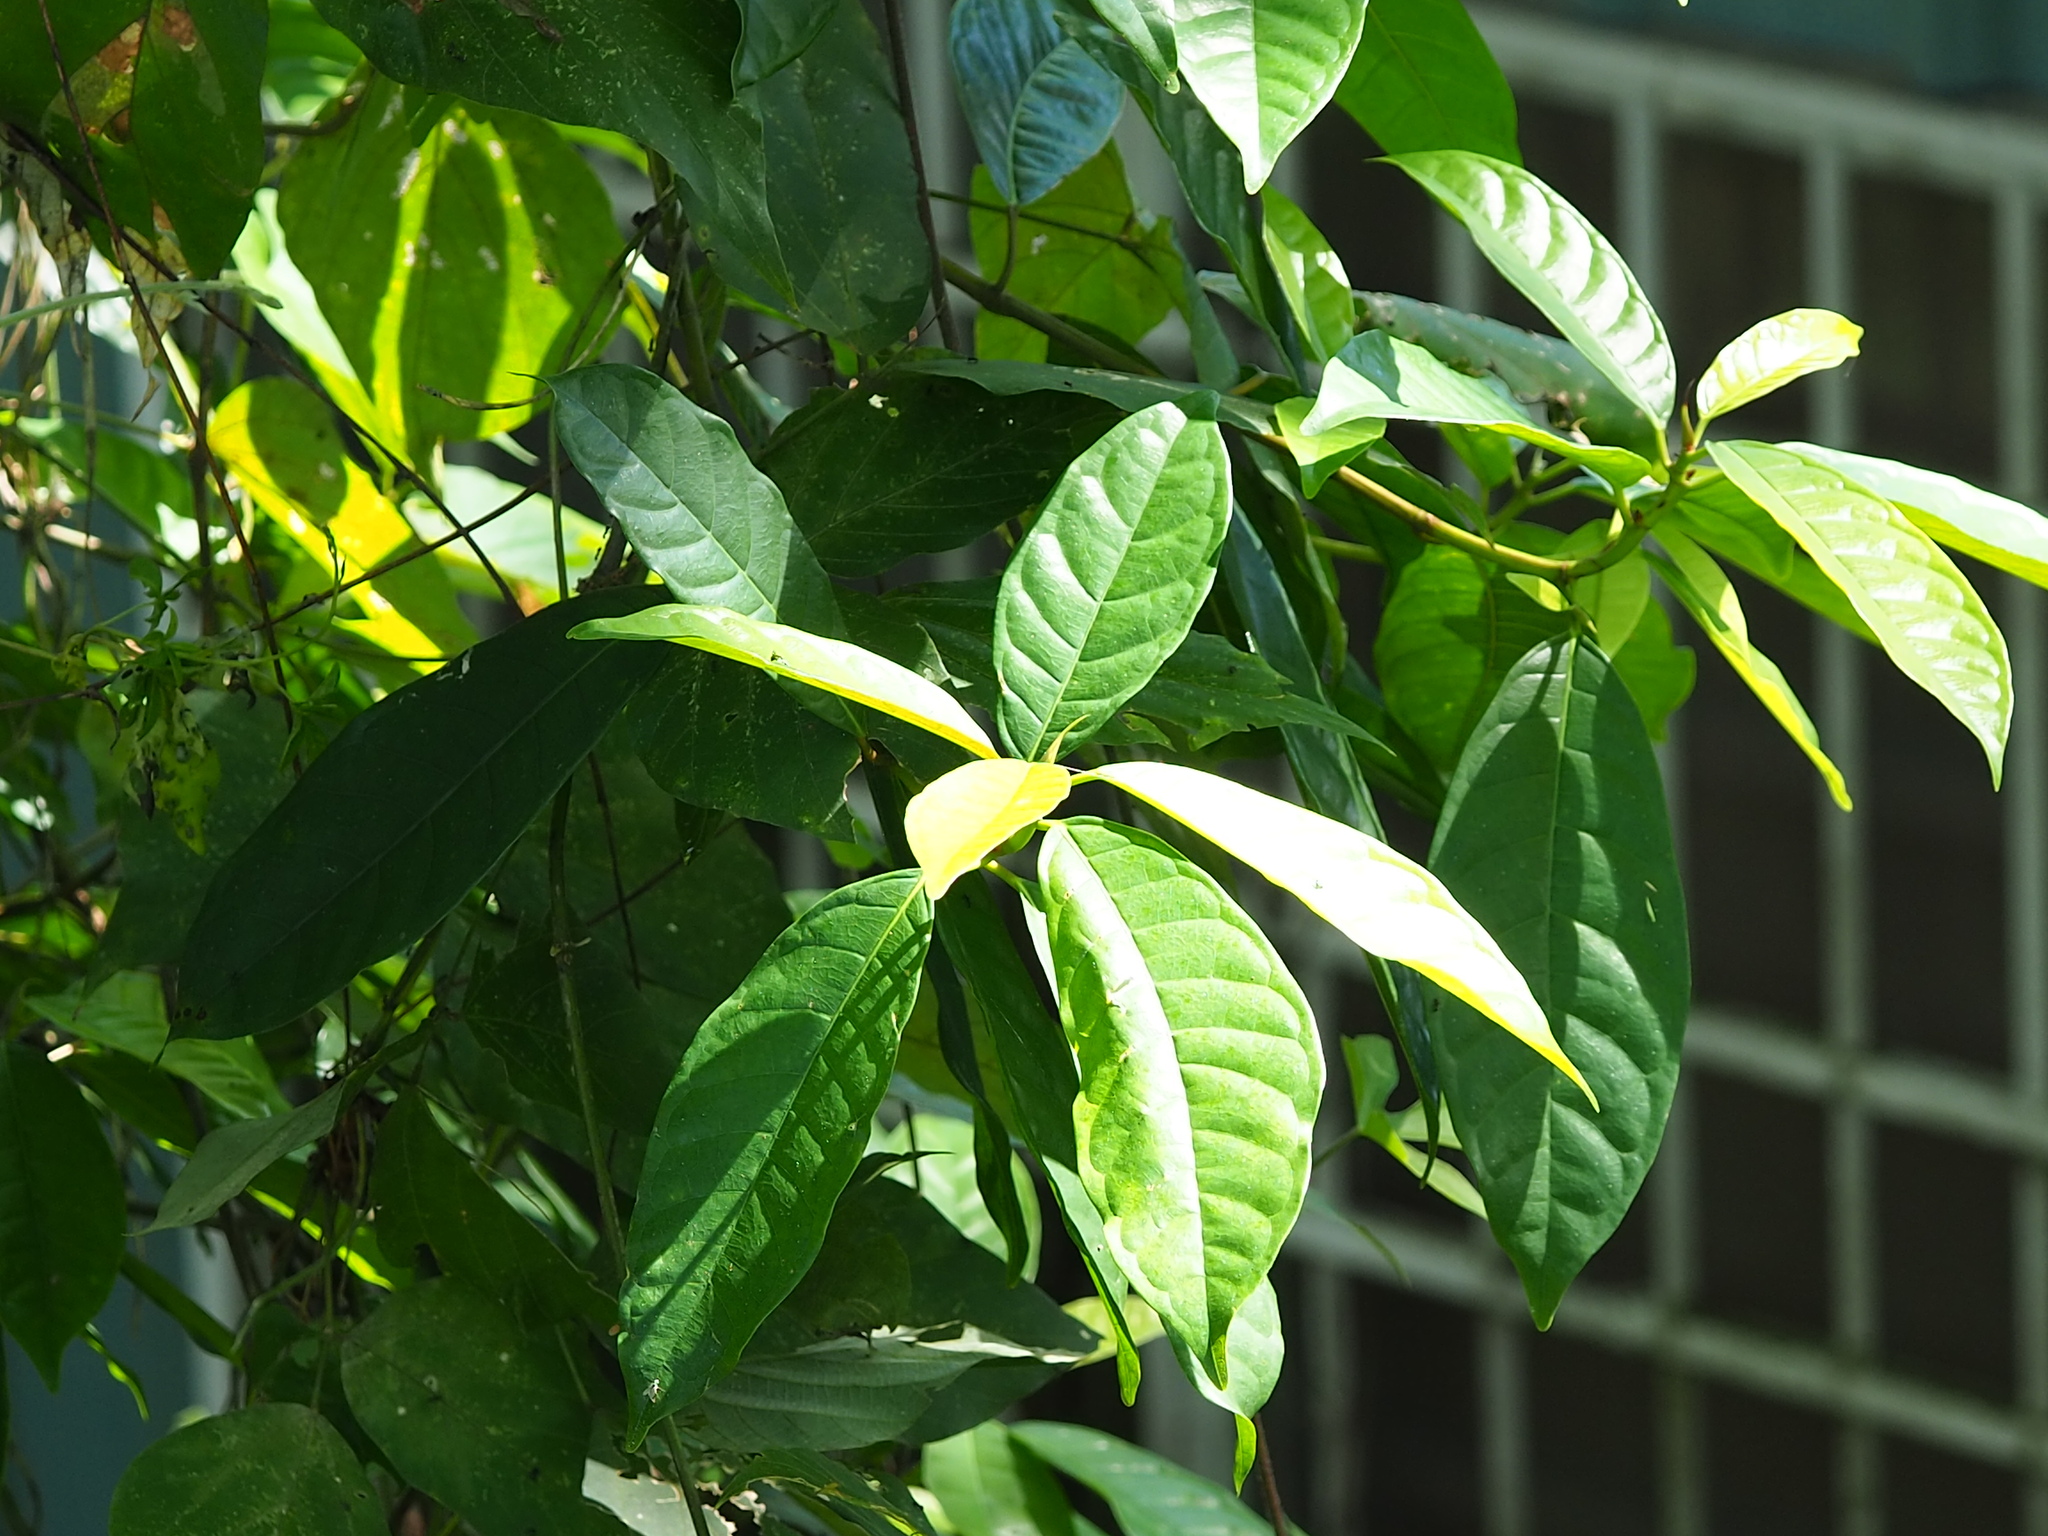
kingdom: Plantae
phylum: Tracheophyta
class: Magnoliopsida
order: Rosales
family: Moraceae
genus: Ficus
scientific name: Ficus nervosa
